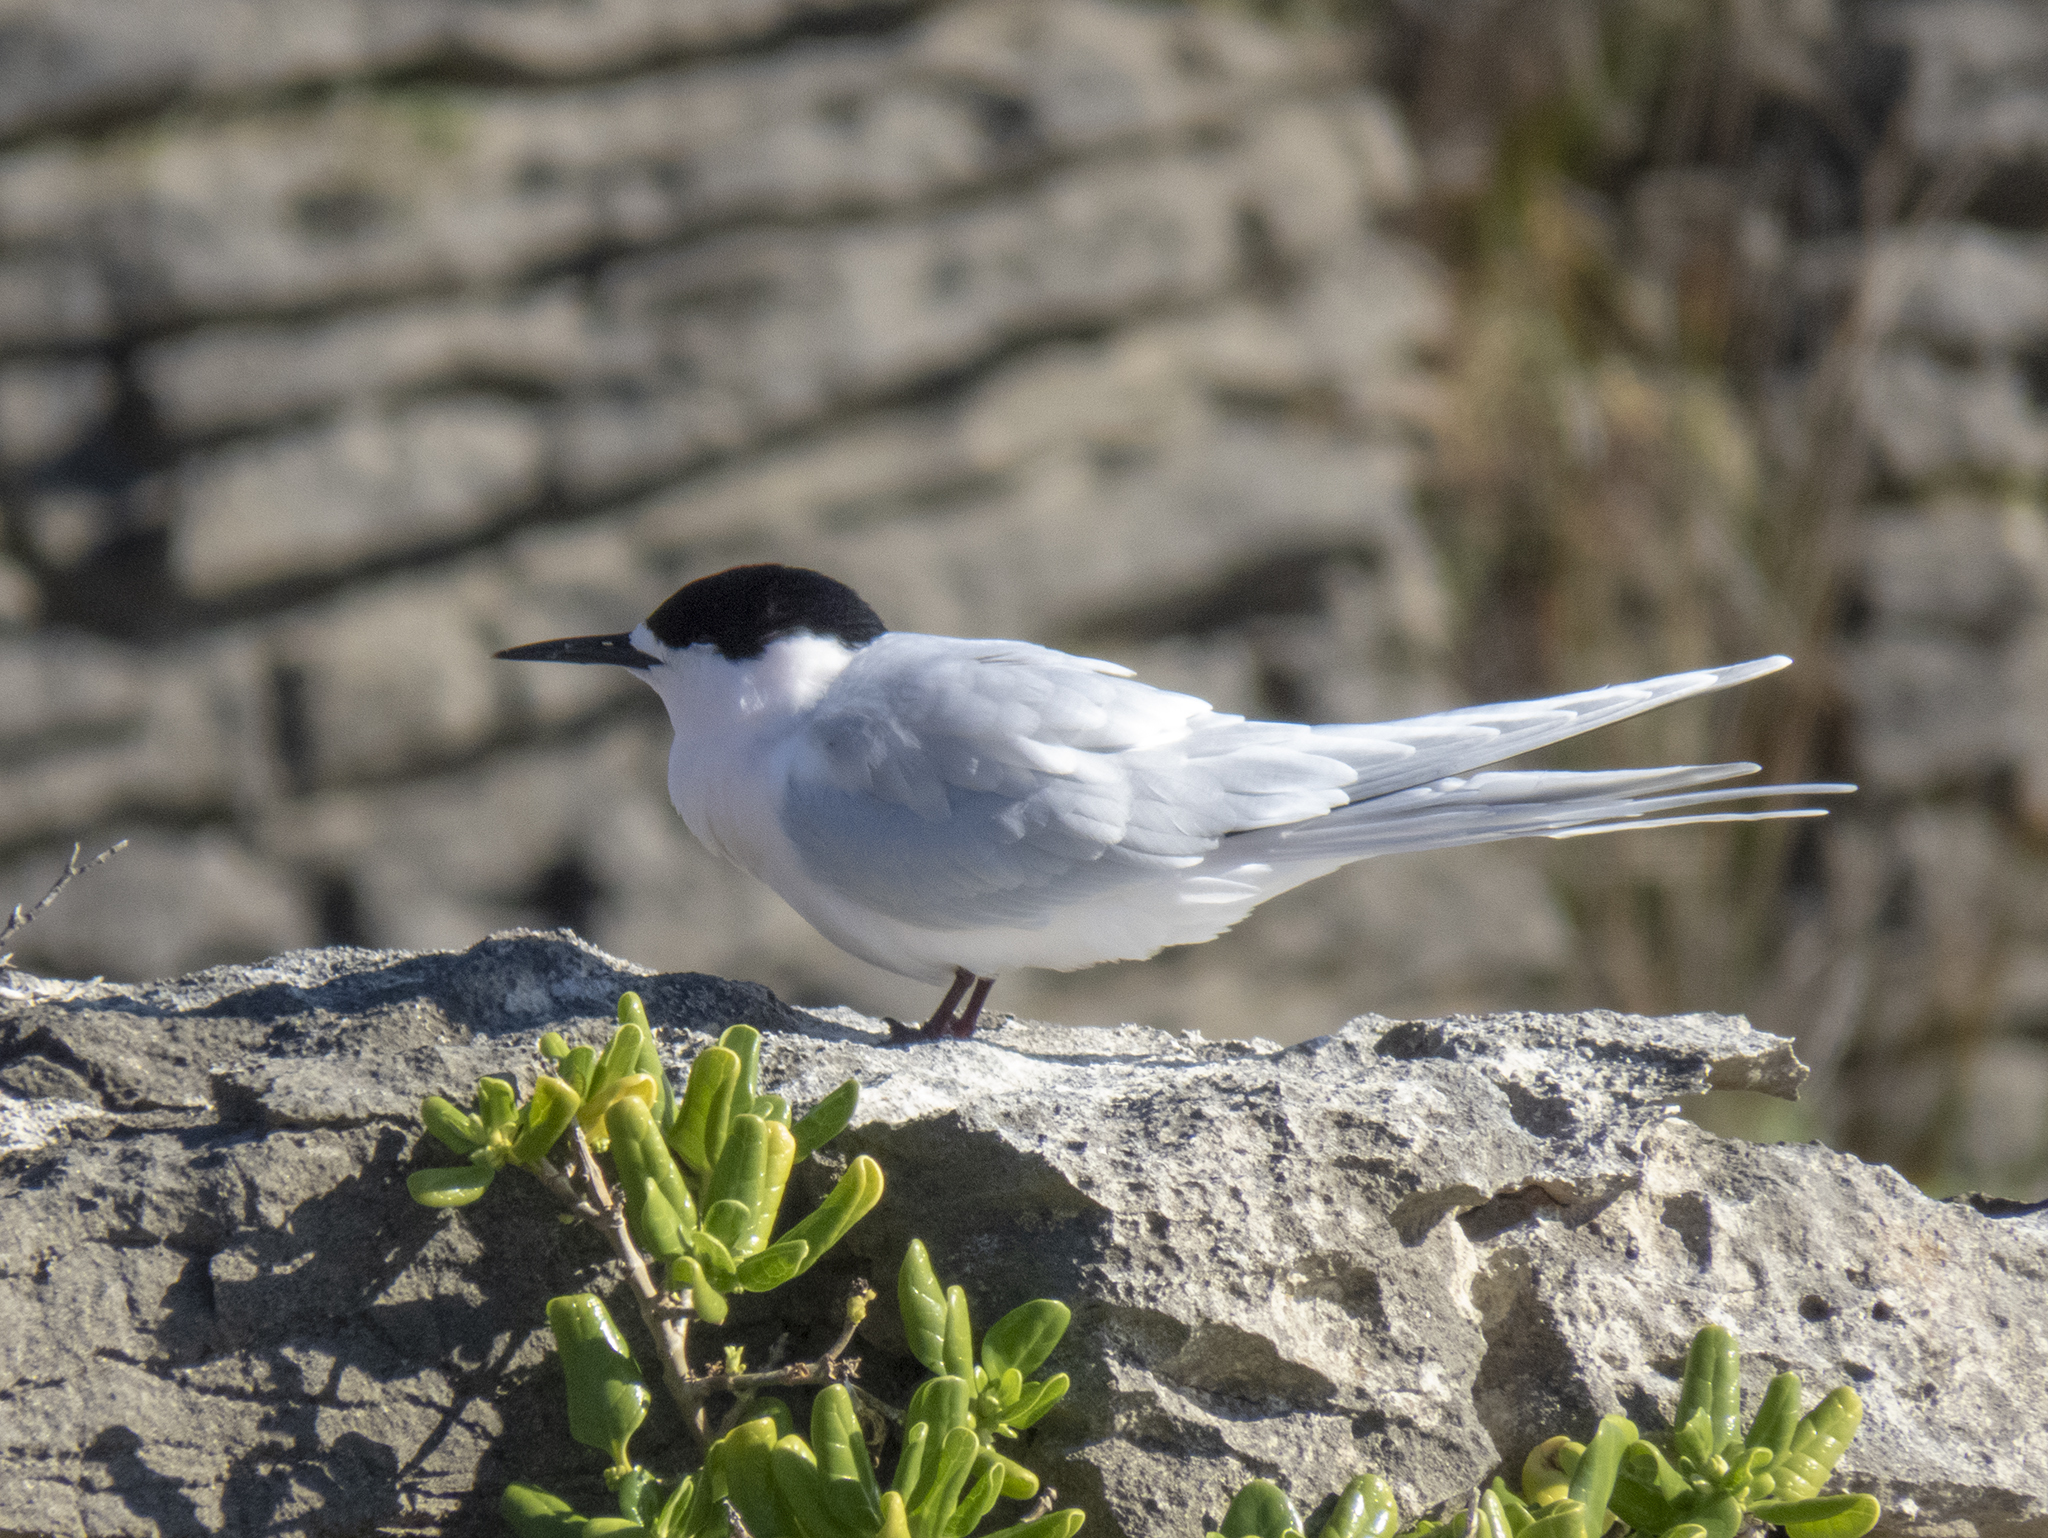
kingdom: Animalia
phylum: Chordata
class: Aves
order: Charadriiformes
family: Laridae
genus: Sterna
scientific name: Sterna striata
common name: White-fronted tern
